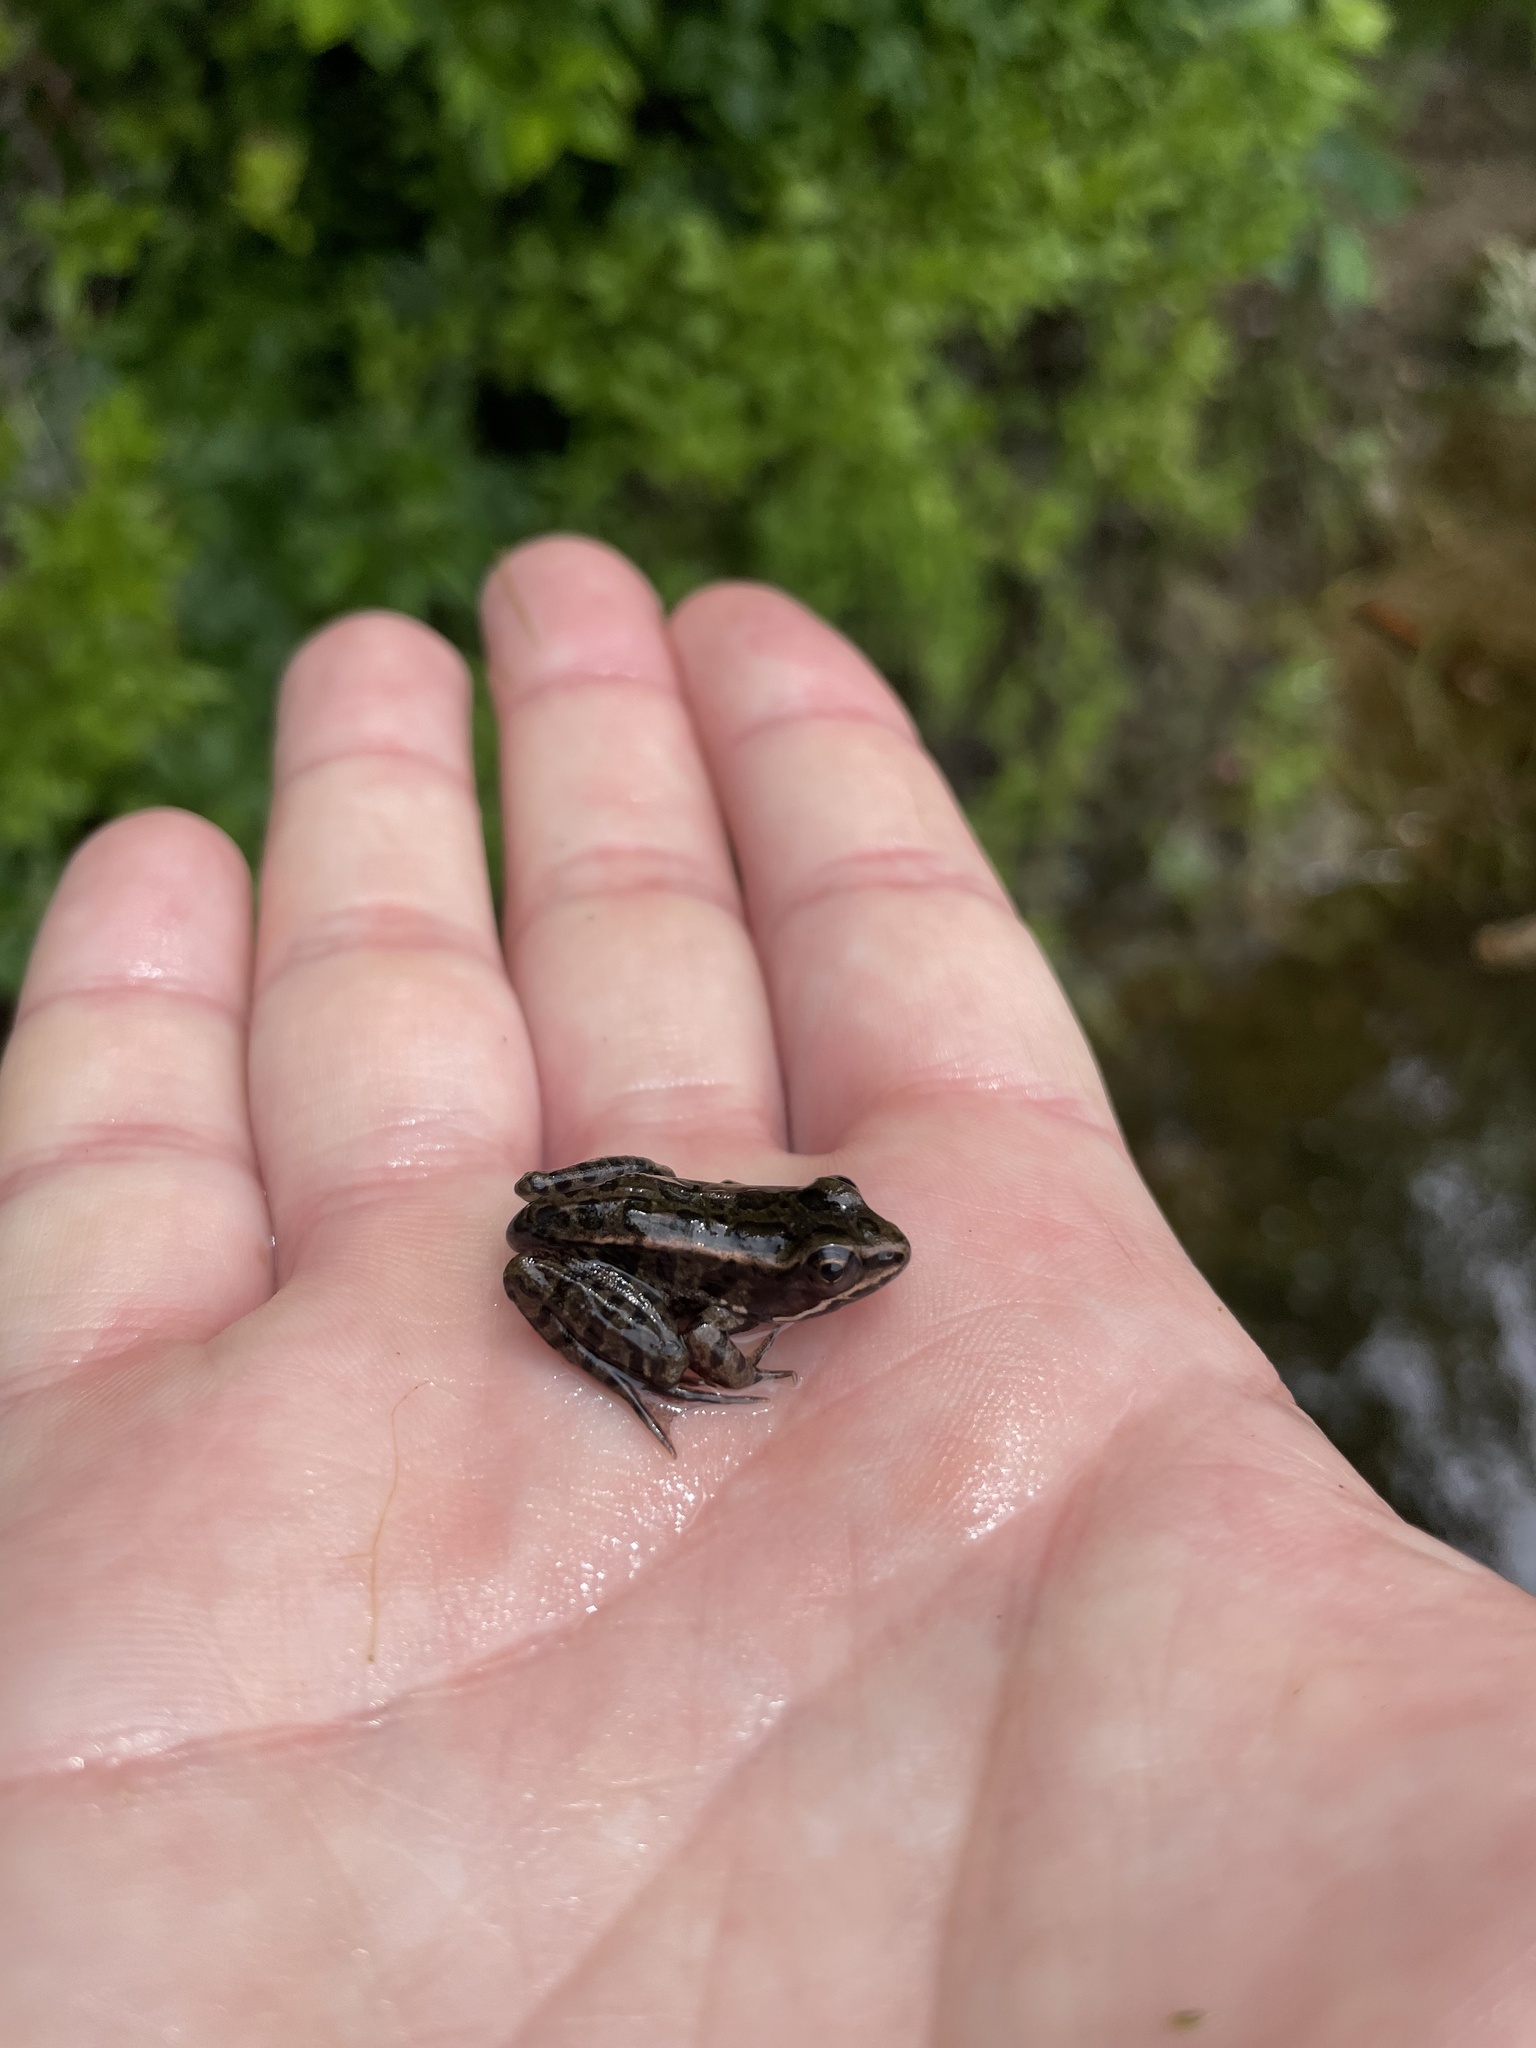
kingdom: Animalia
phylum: Chordata
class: Amphibia
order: Anura
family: Ranidae
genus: Lithobates
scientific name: Lithobates palustris
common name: Pickerel frog
